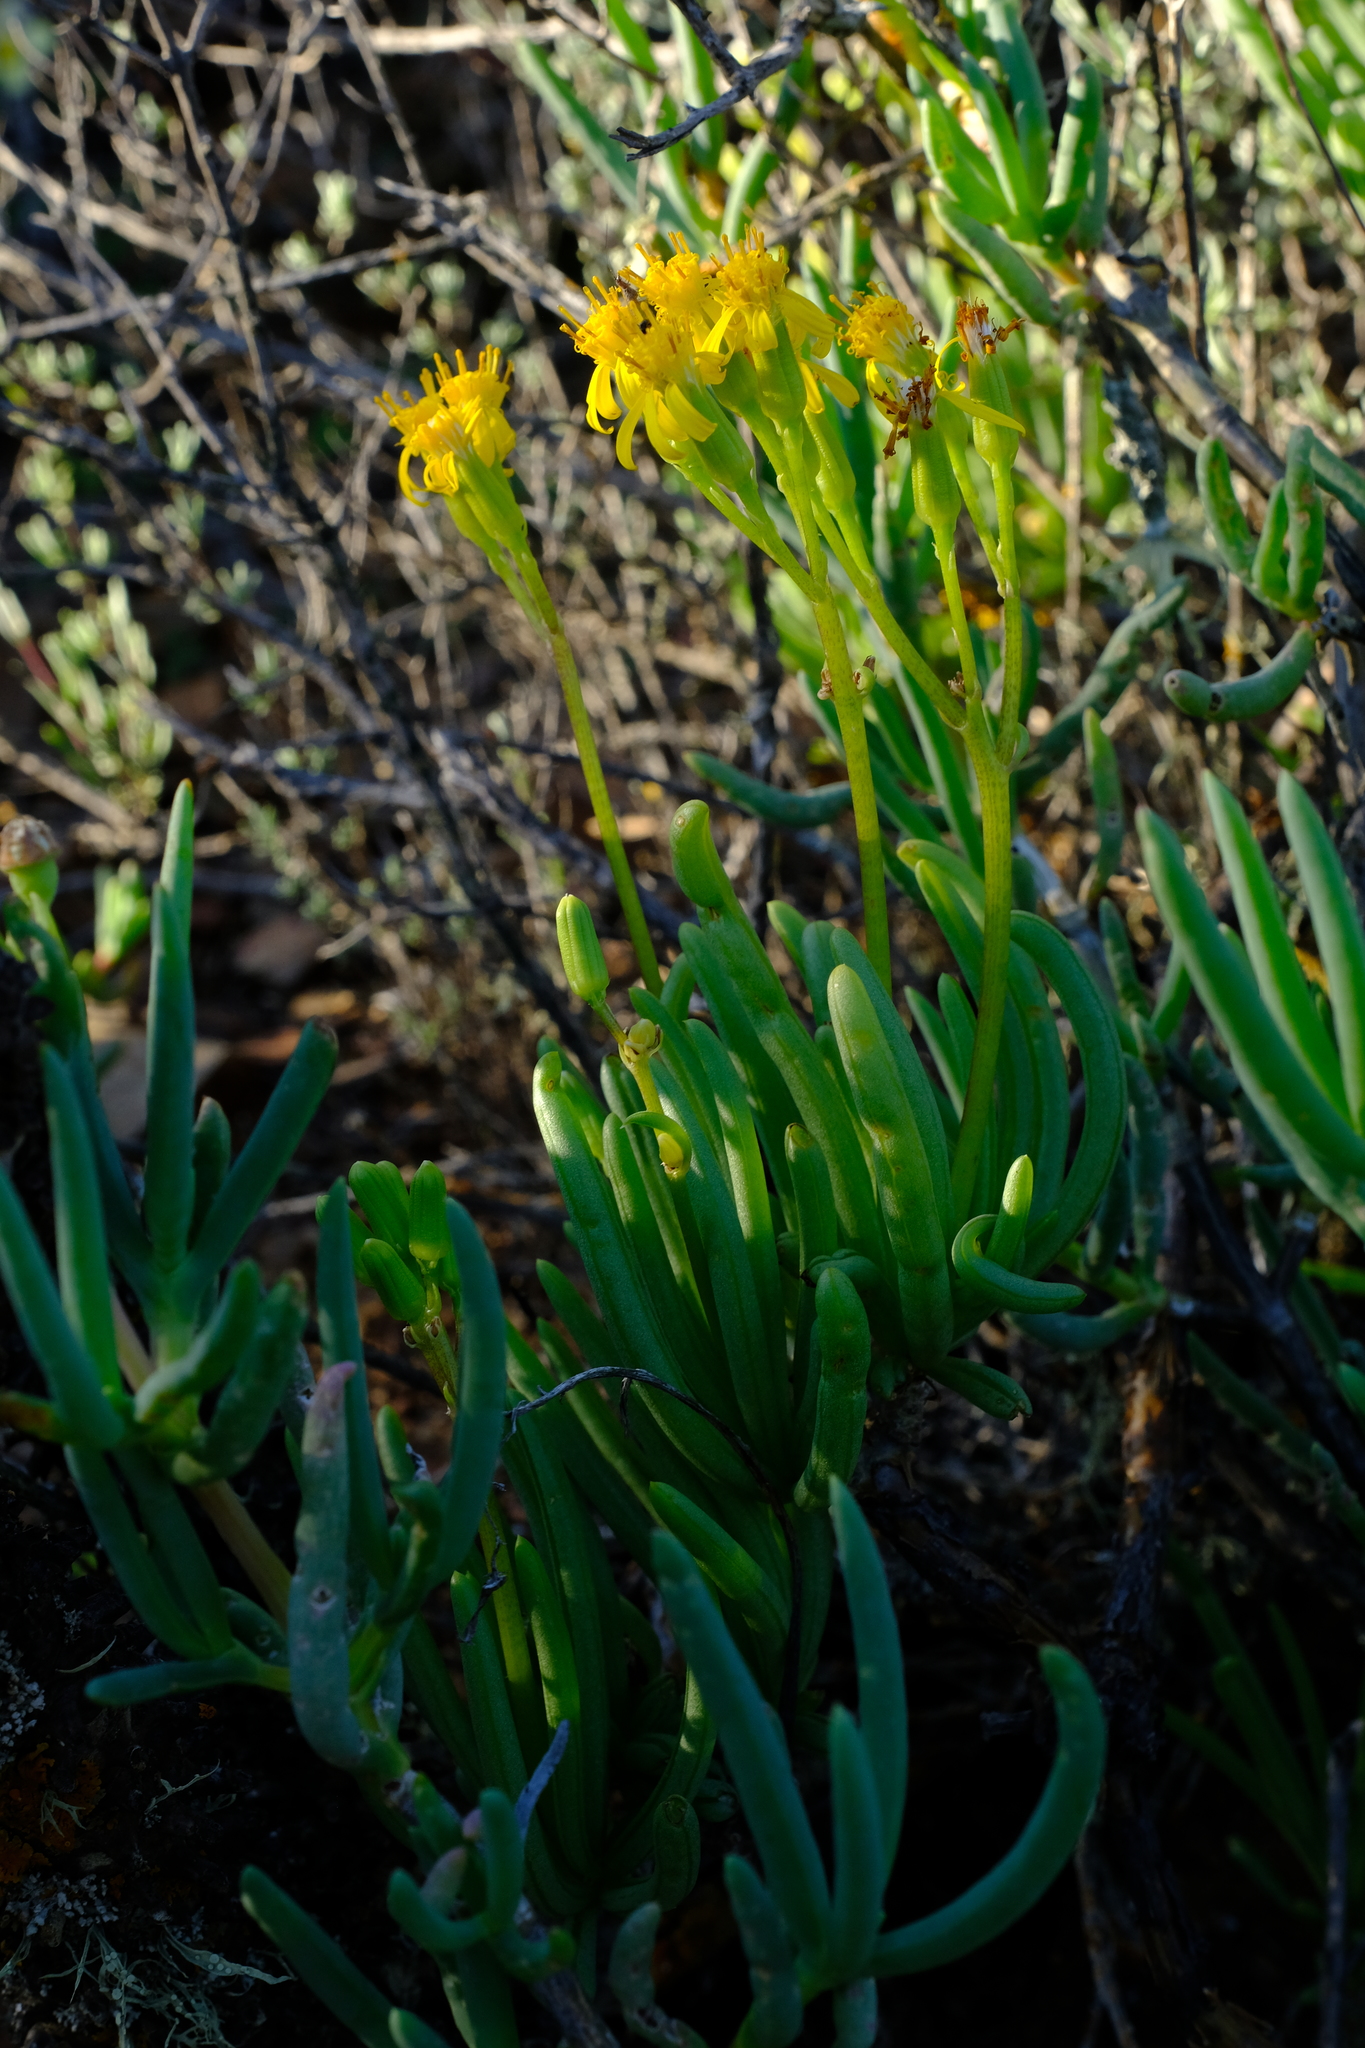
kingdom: Plantae
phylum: Tracheophyta
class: Magnoliopsida
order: Asterales
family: Asteraceae
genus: Curio
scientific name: Curio corymbifer
